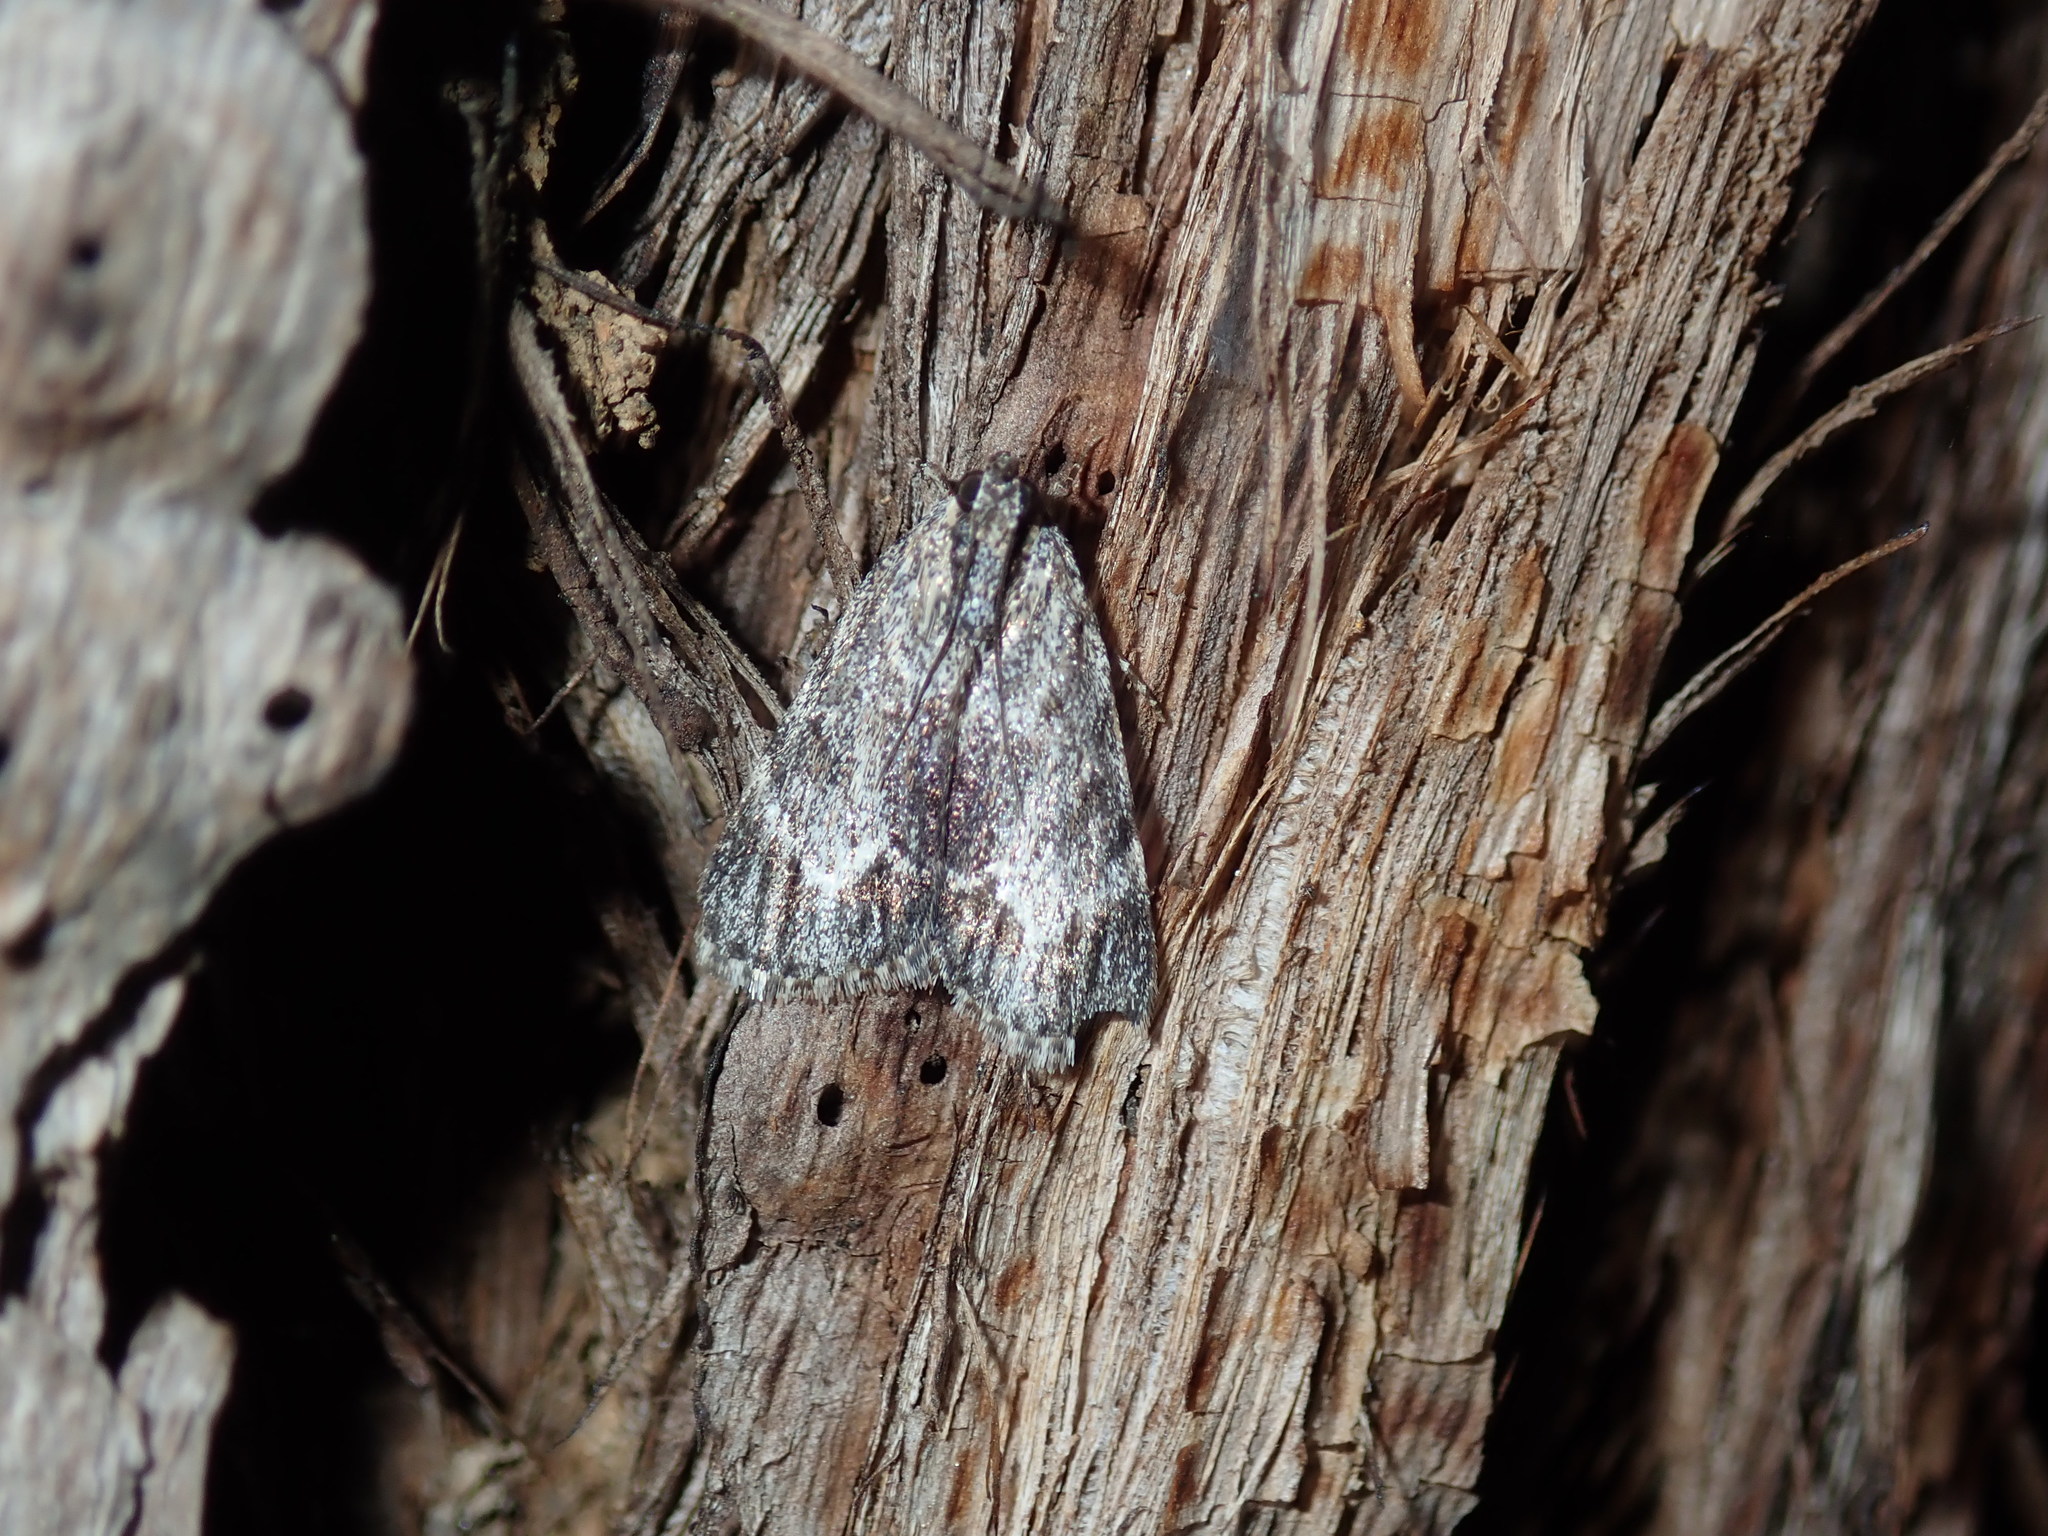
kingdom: Animalia
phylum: Arthropoda
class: Insecta
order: Lepidoptera
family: Pyralidae
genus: Spectrotrota
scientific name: Spectrotrota fimbrialis
